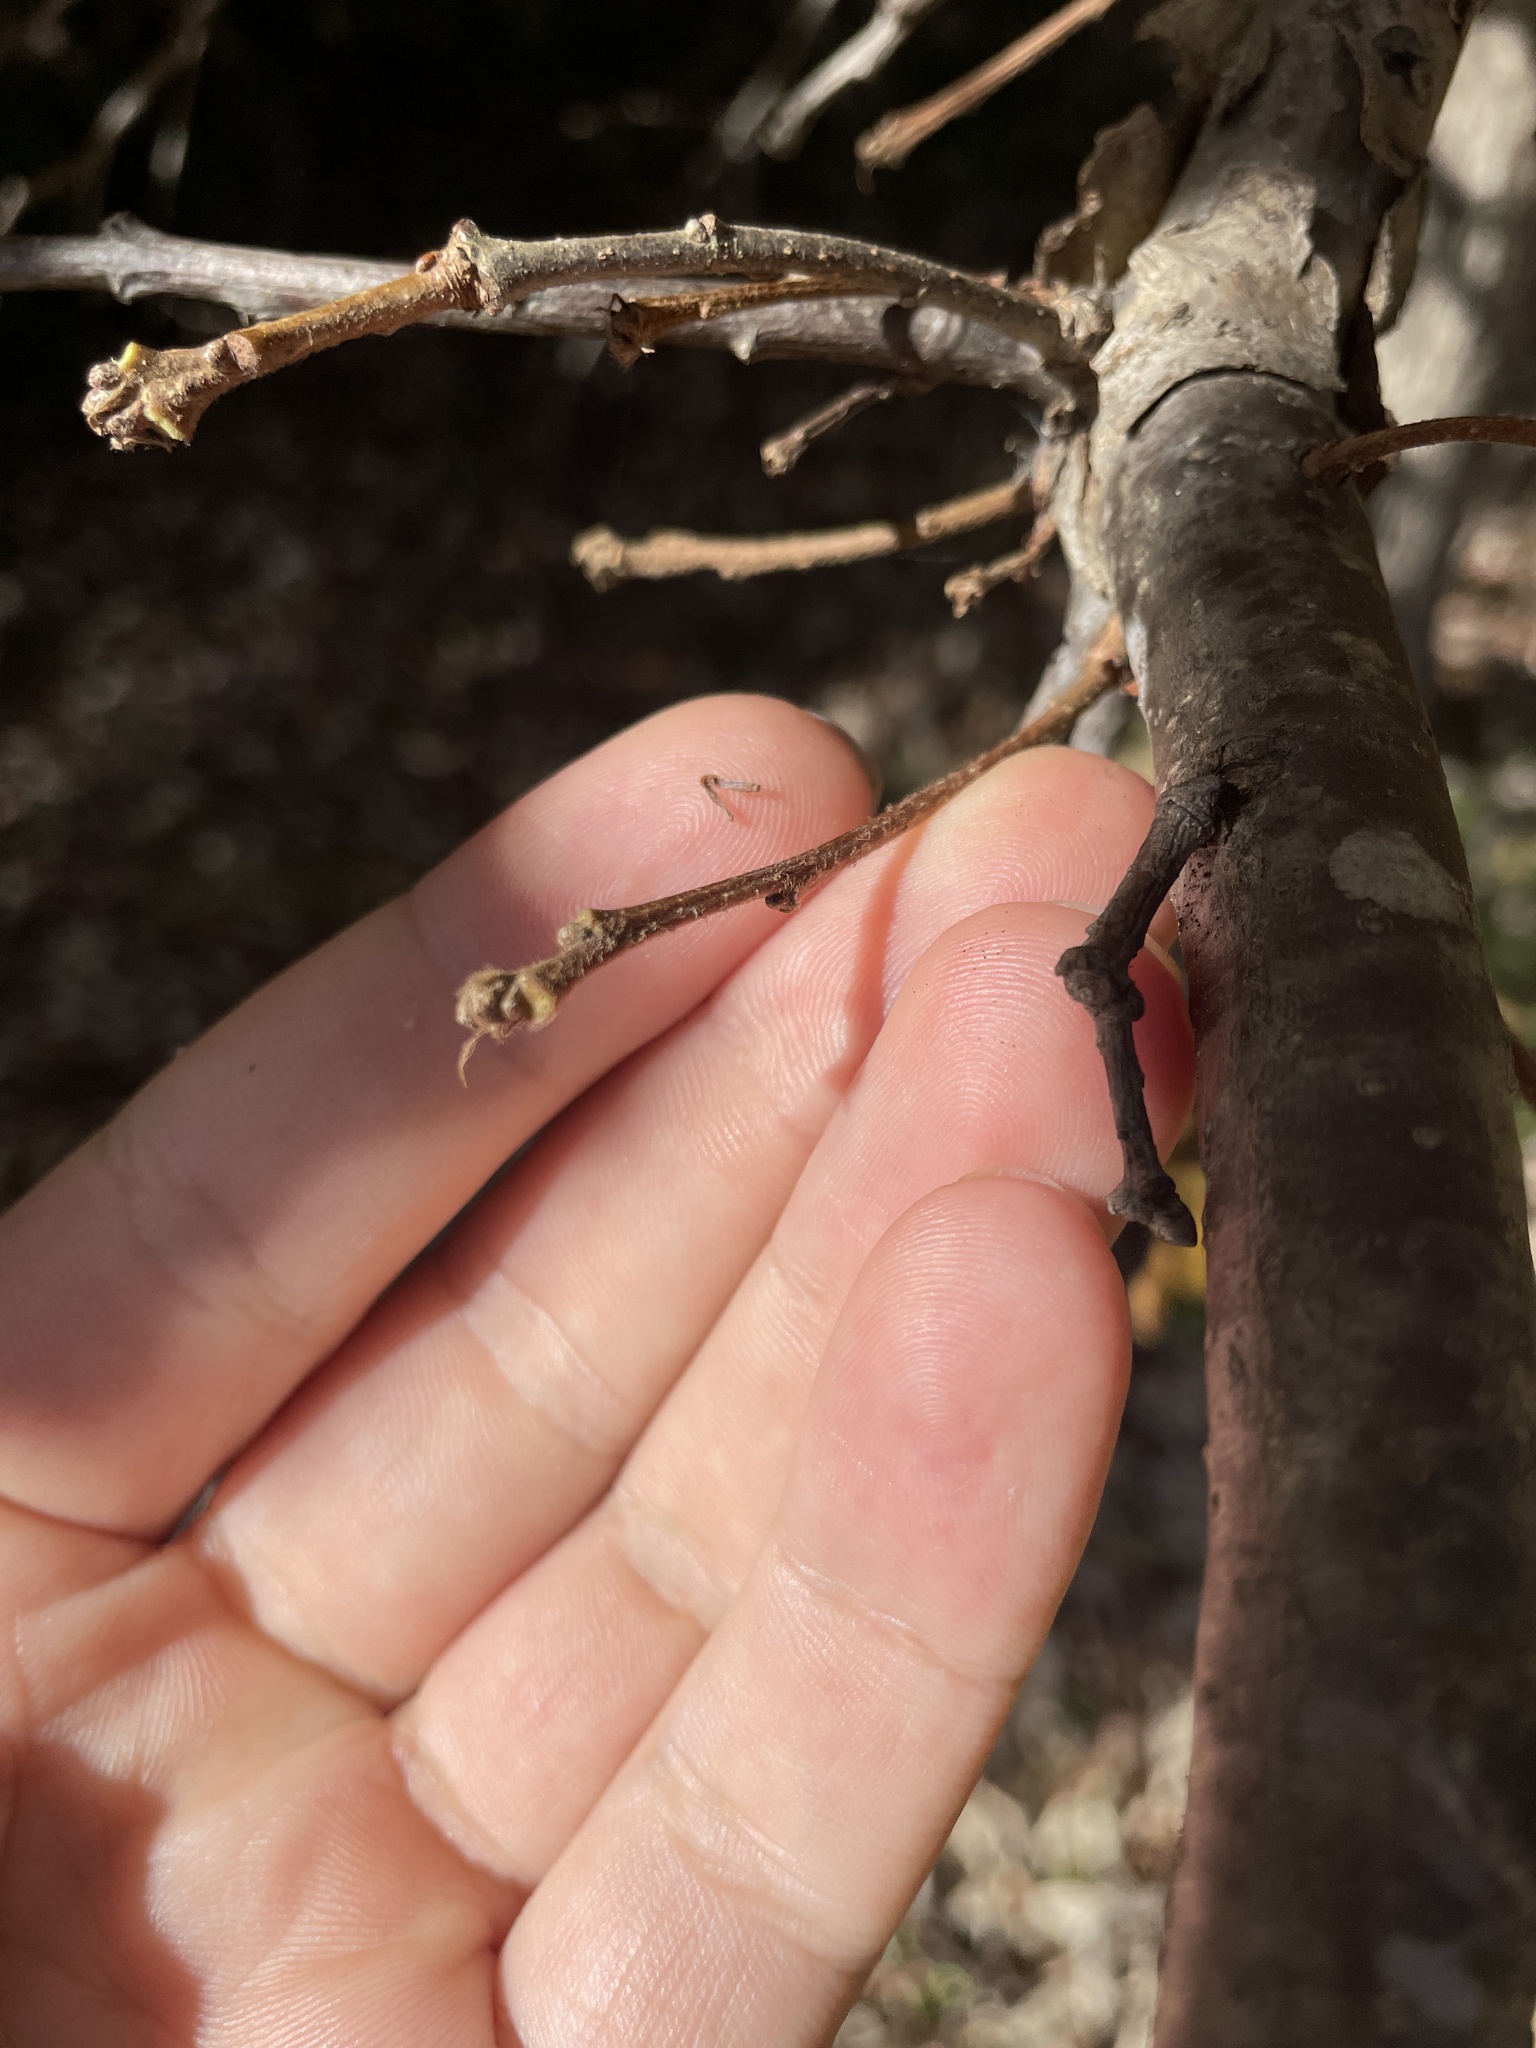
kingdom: Plantae
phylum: Tracheophyta
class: Magnoliopsida
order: Fagales
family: Fagaceae
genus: Quercus
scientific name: Quercus bicolor
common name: Swamp white oak
